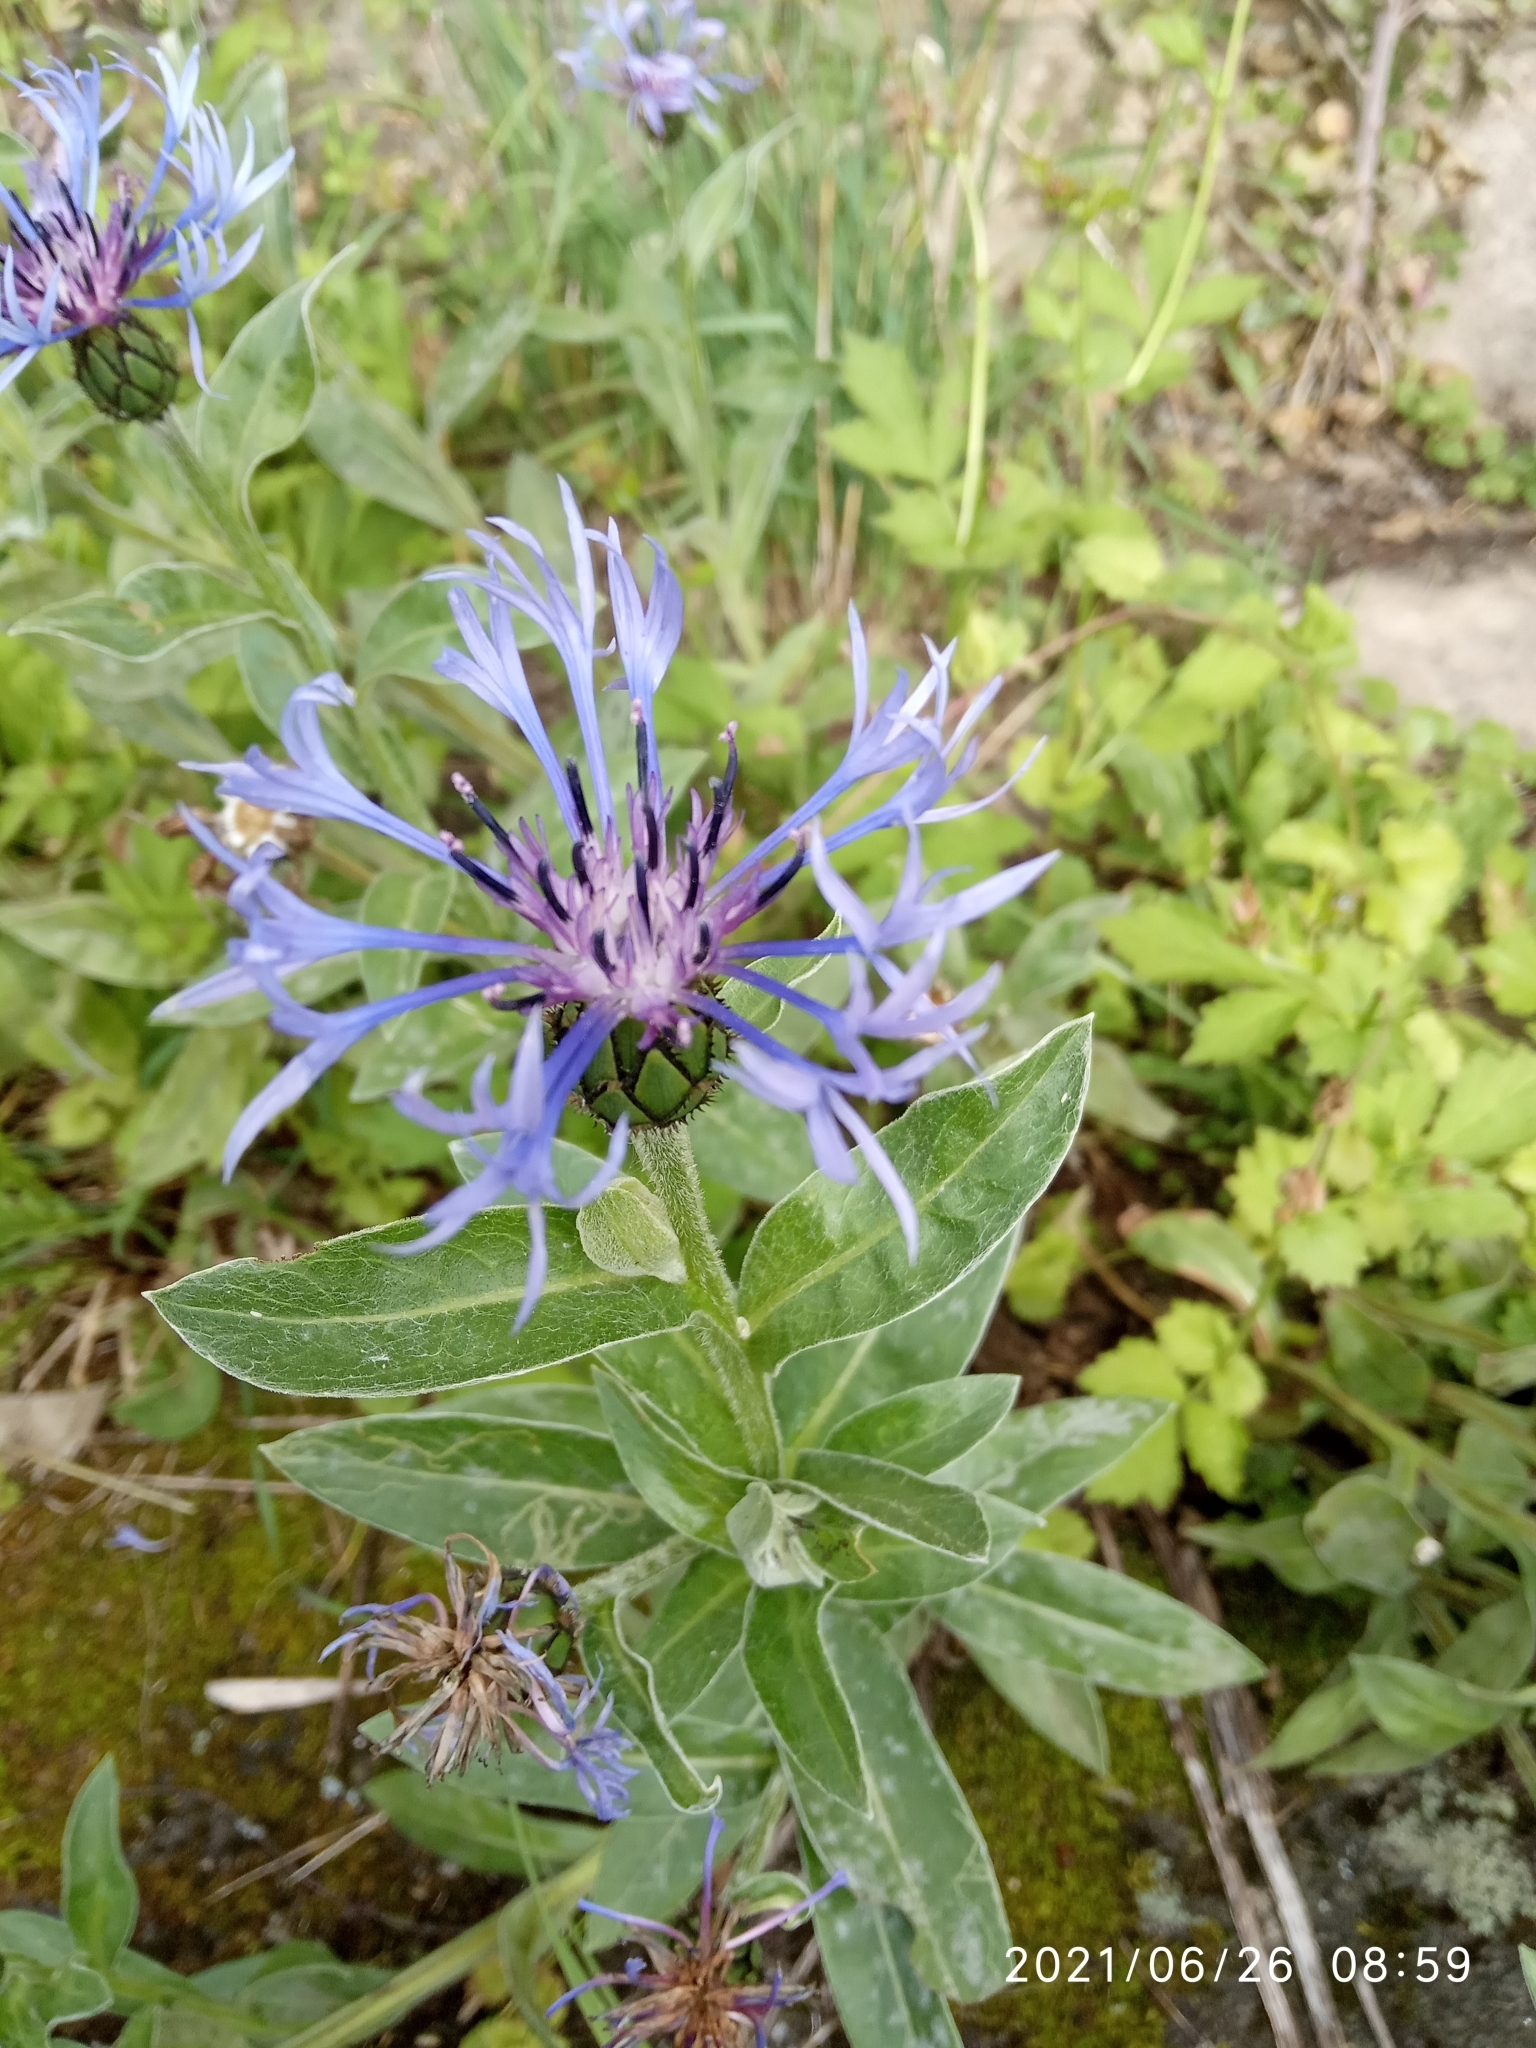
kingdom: Plantae
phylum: Tracheophyta
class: Magnoliopsida
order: Asterales
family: Asteraceae
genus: Centaurea
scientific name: Centaurea montana
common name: Perennial cornflower
